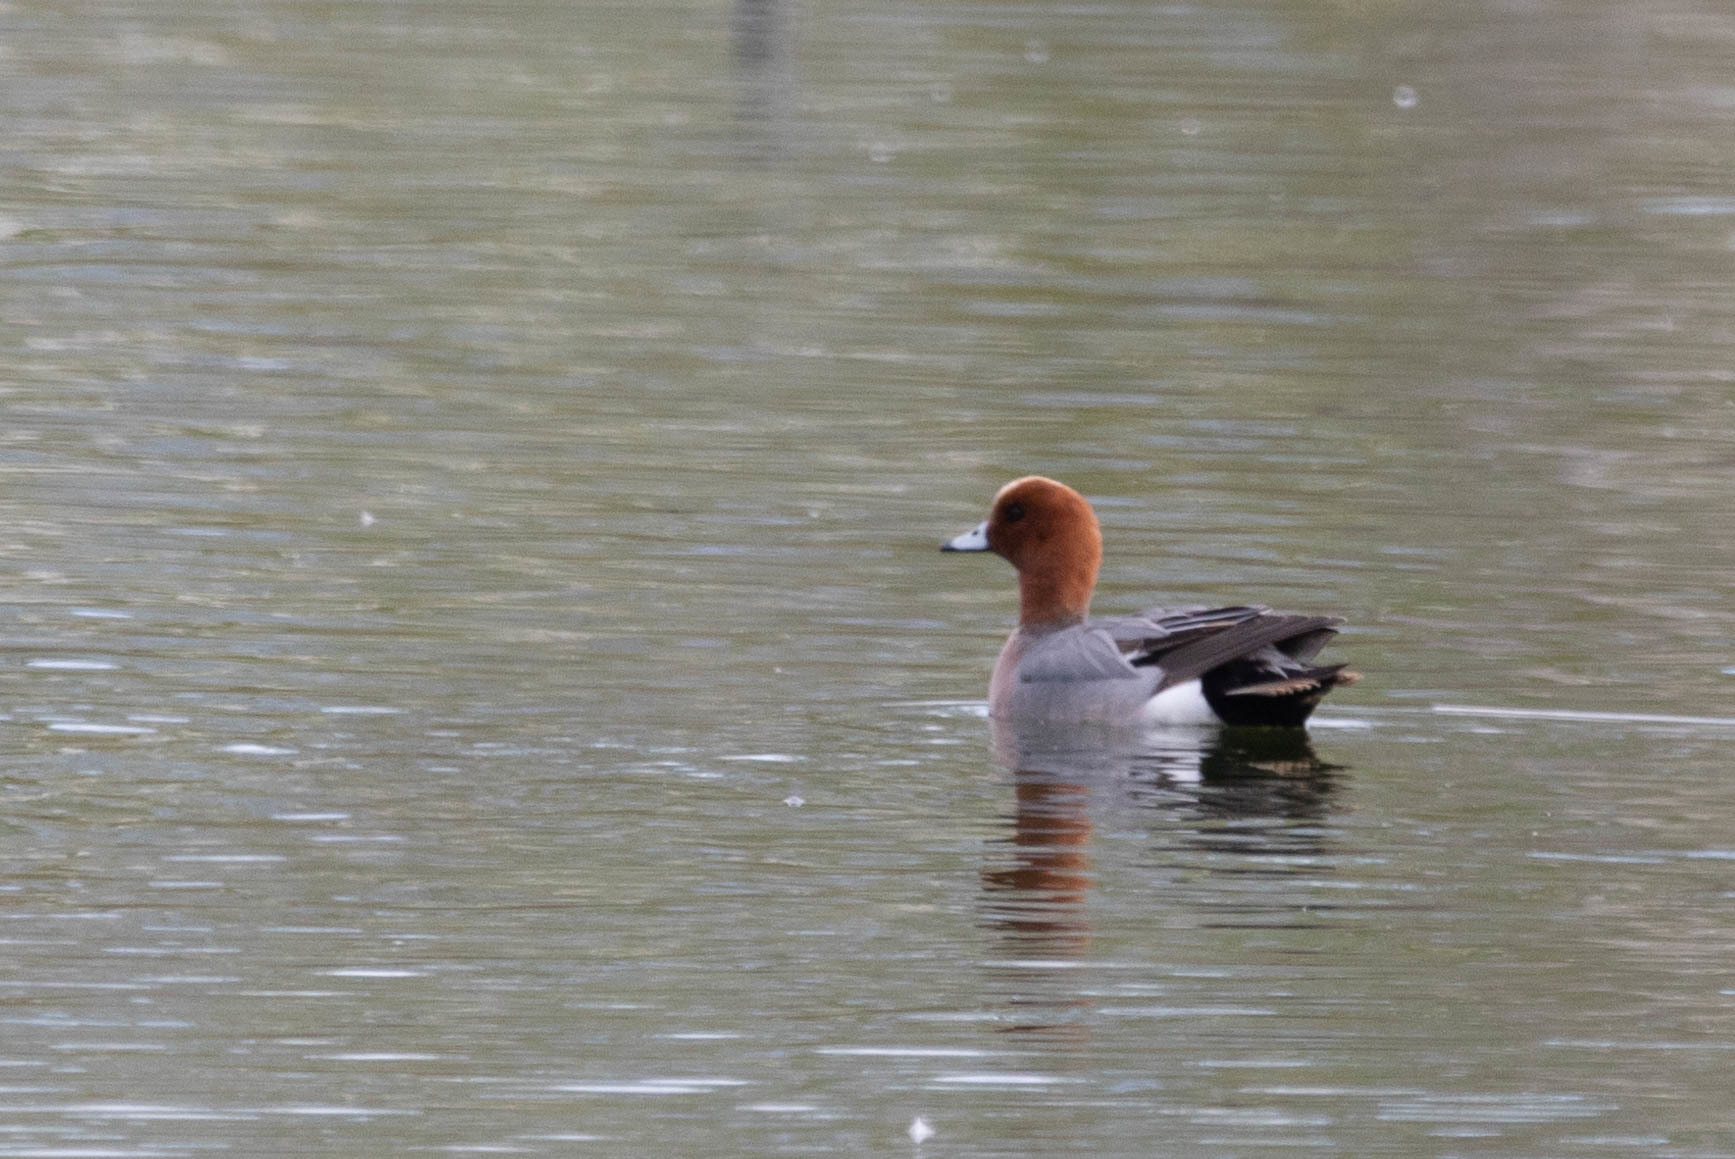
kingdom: Animalia
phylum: Chordata
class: Aves
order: Anseriformes
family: Anatidae
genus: Mareca
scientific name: Mareca penelope
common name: Eurasian wigeon
